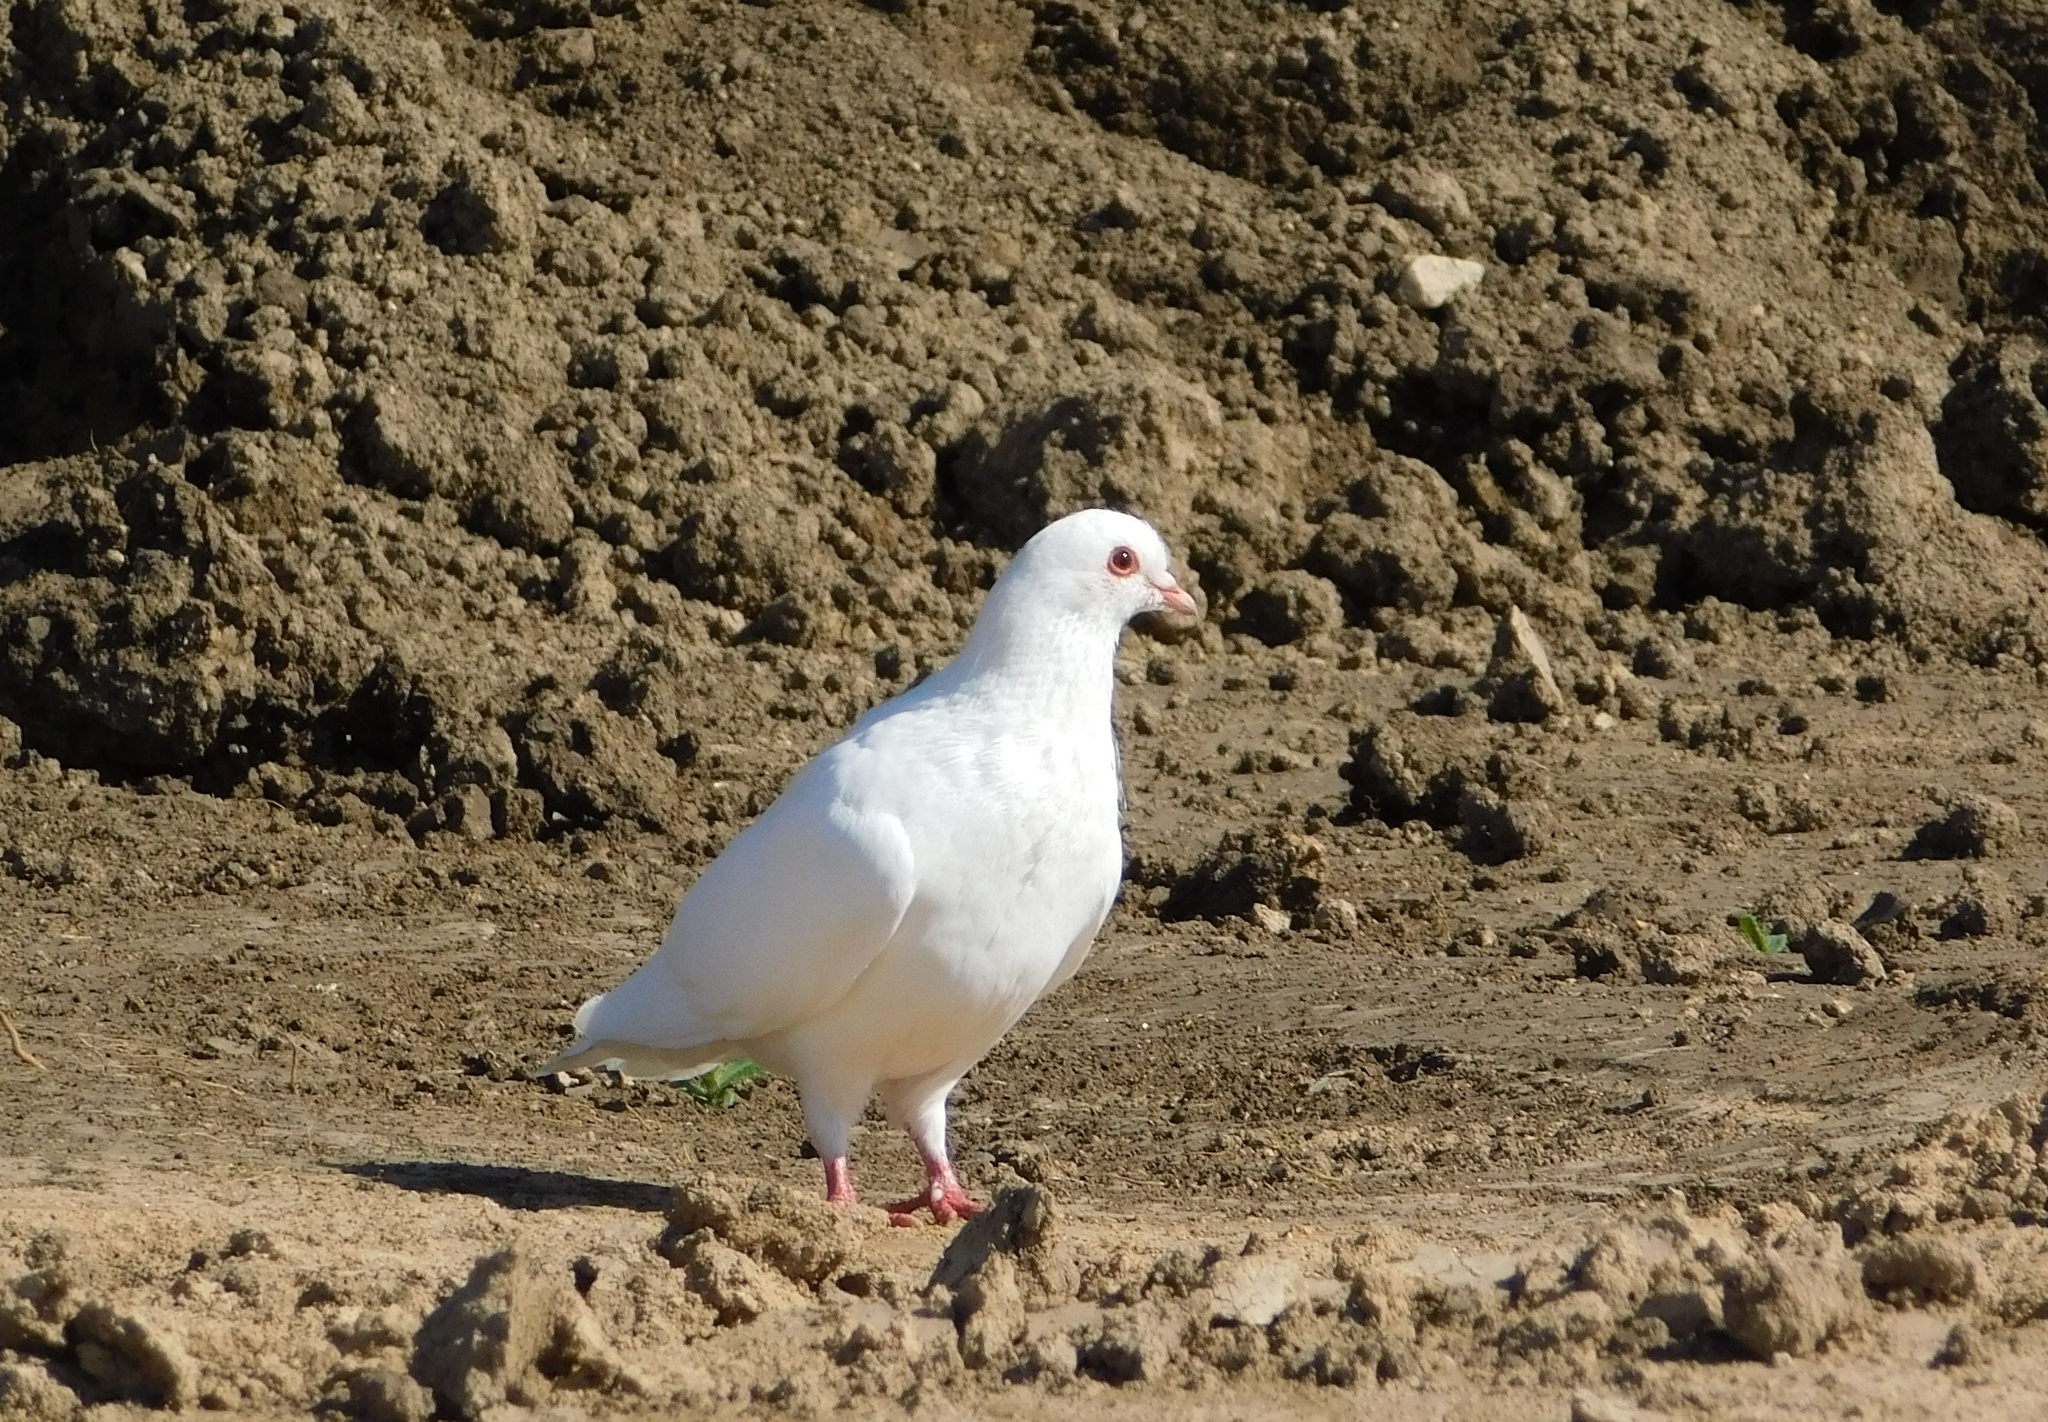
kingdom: Animalia
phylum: Chordata
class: Aves
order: Columbiformes
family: Columbidae
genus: Columba
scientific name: Columba livia
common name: Rock pigeon
